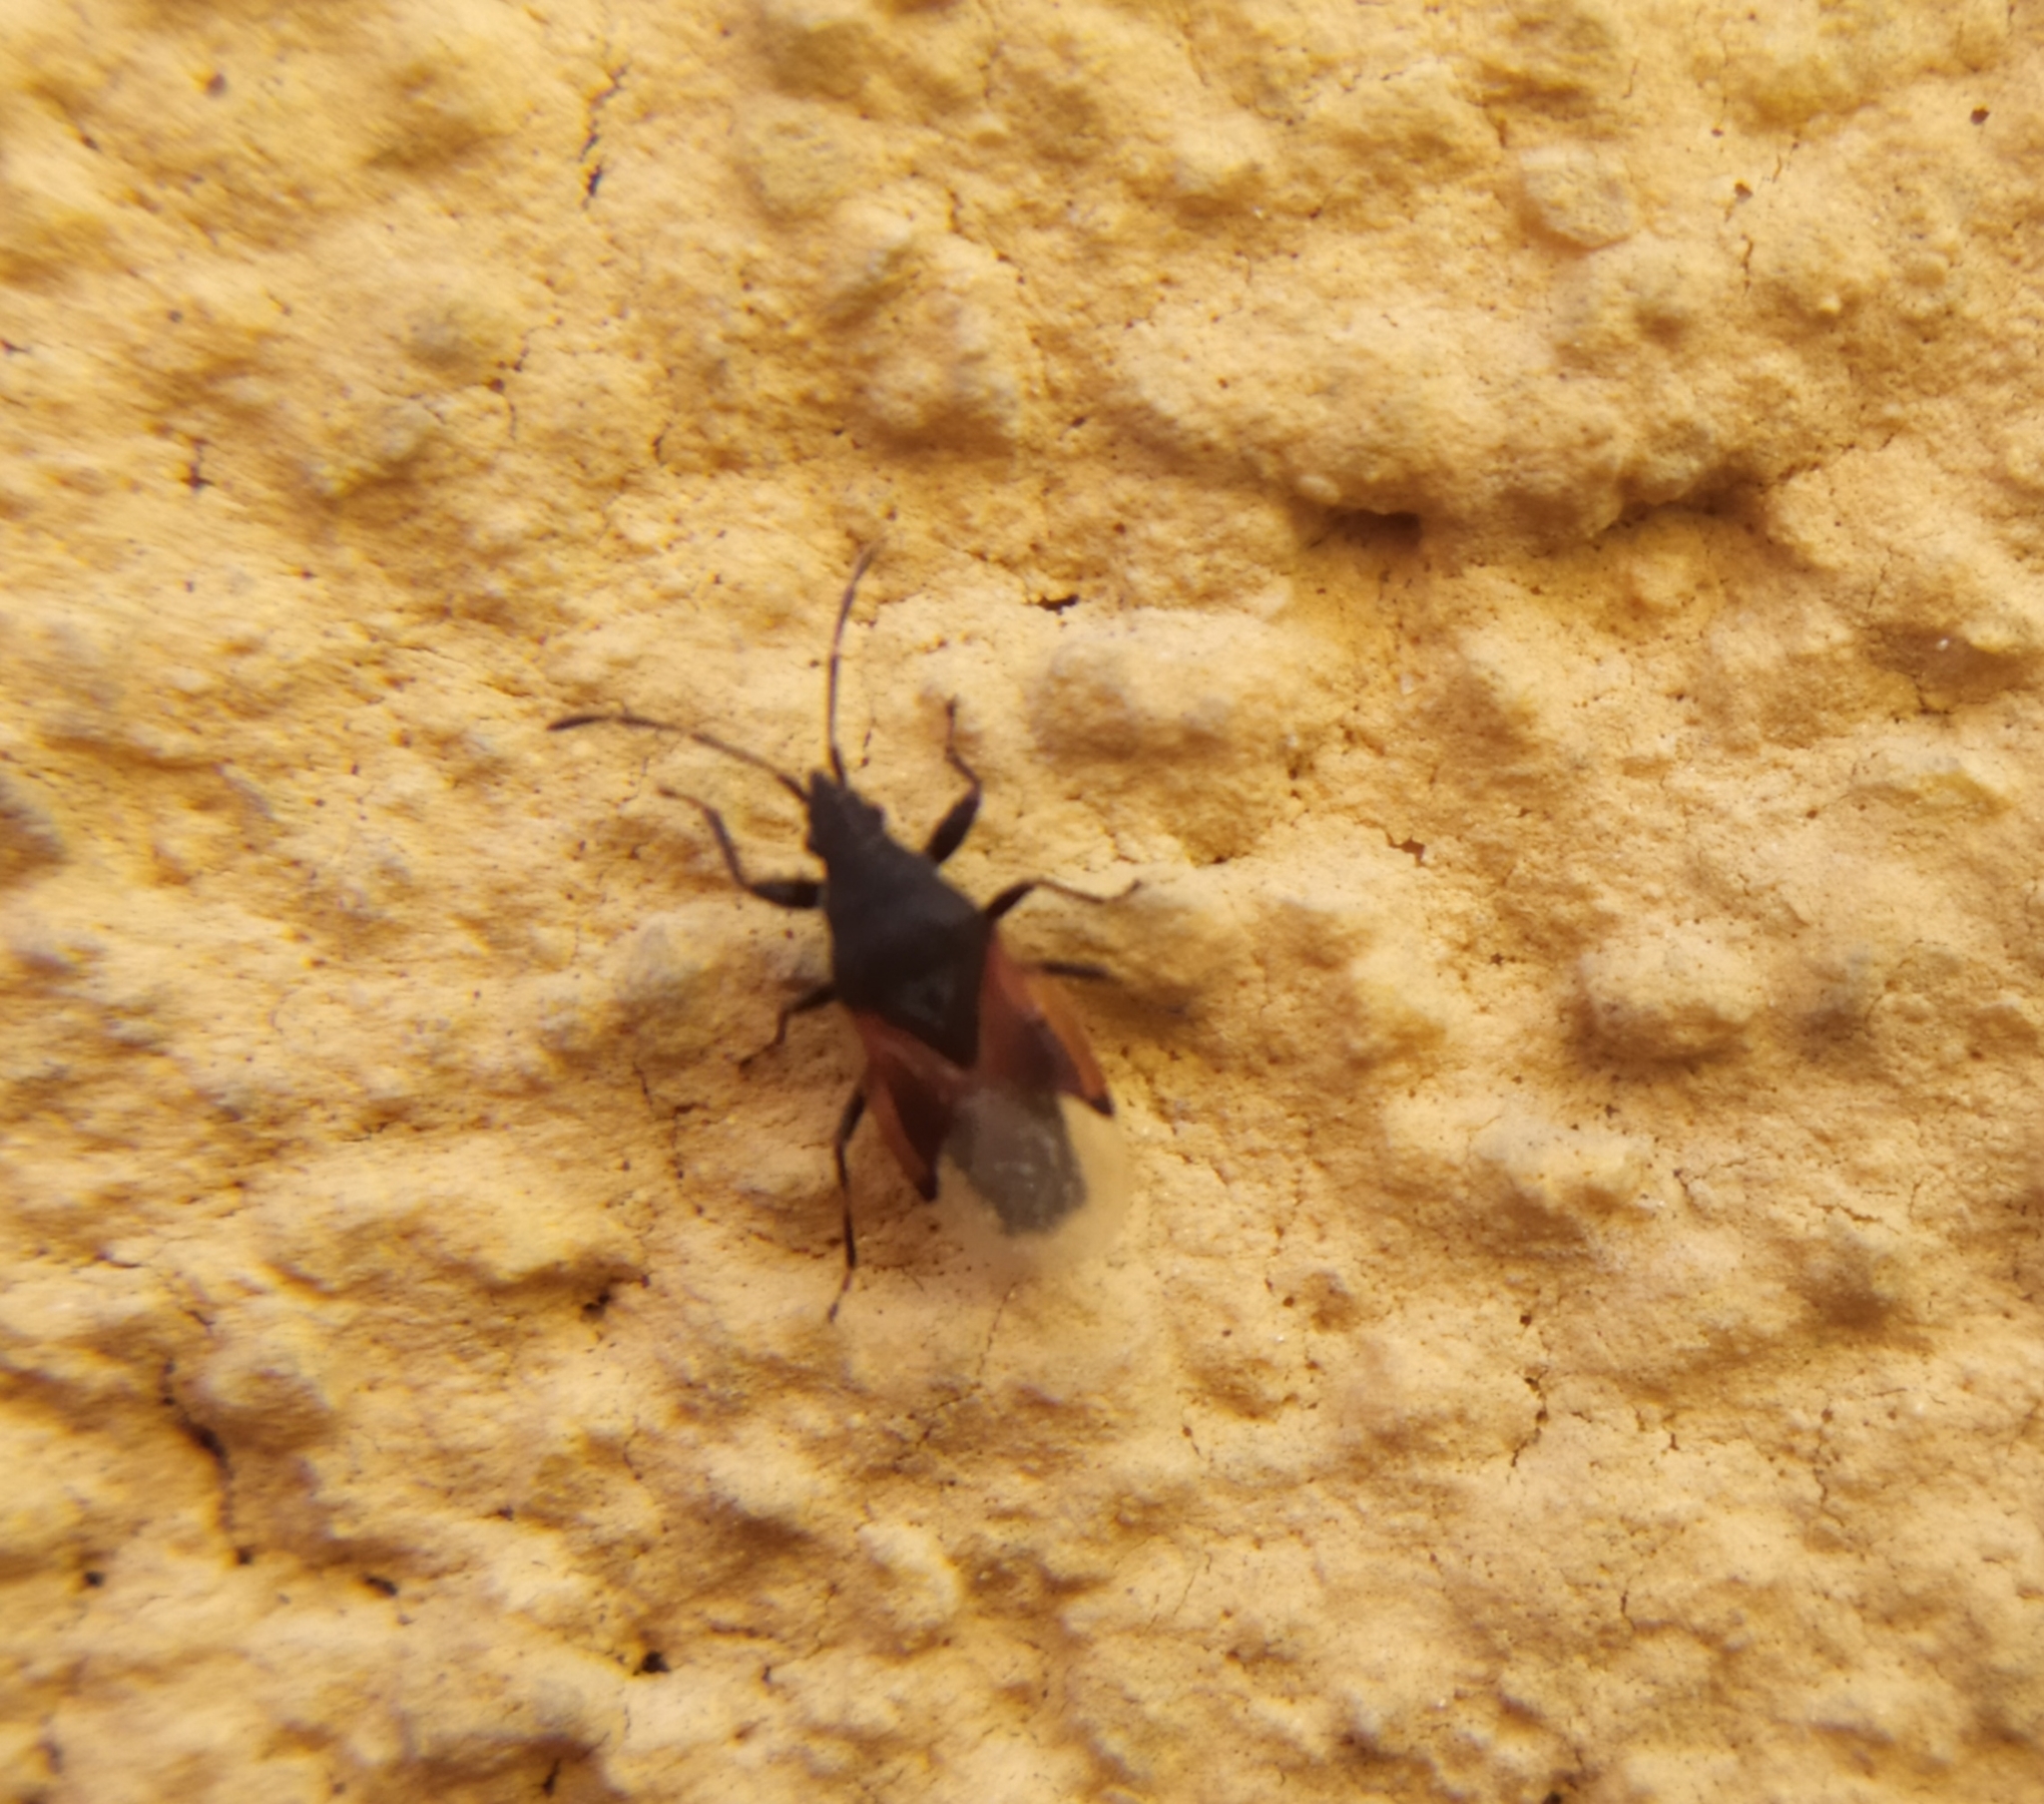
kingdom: Animalia
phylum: Arthropoda
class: Insecta
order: Hemiptera
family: Oxycarenidae
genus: Oxycarenus
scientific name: Oxycarenus lavaterae
